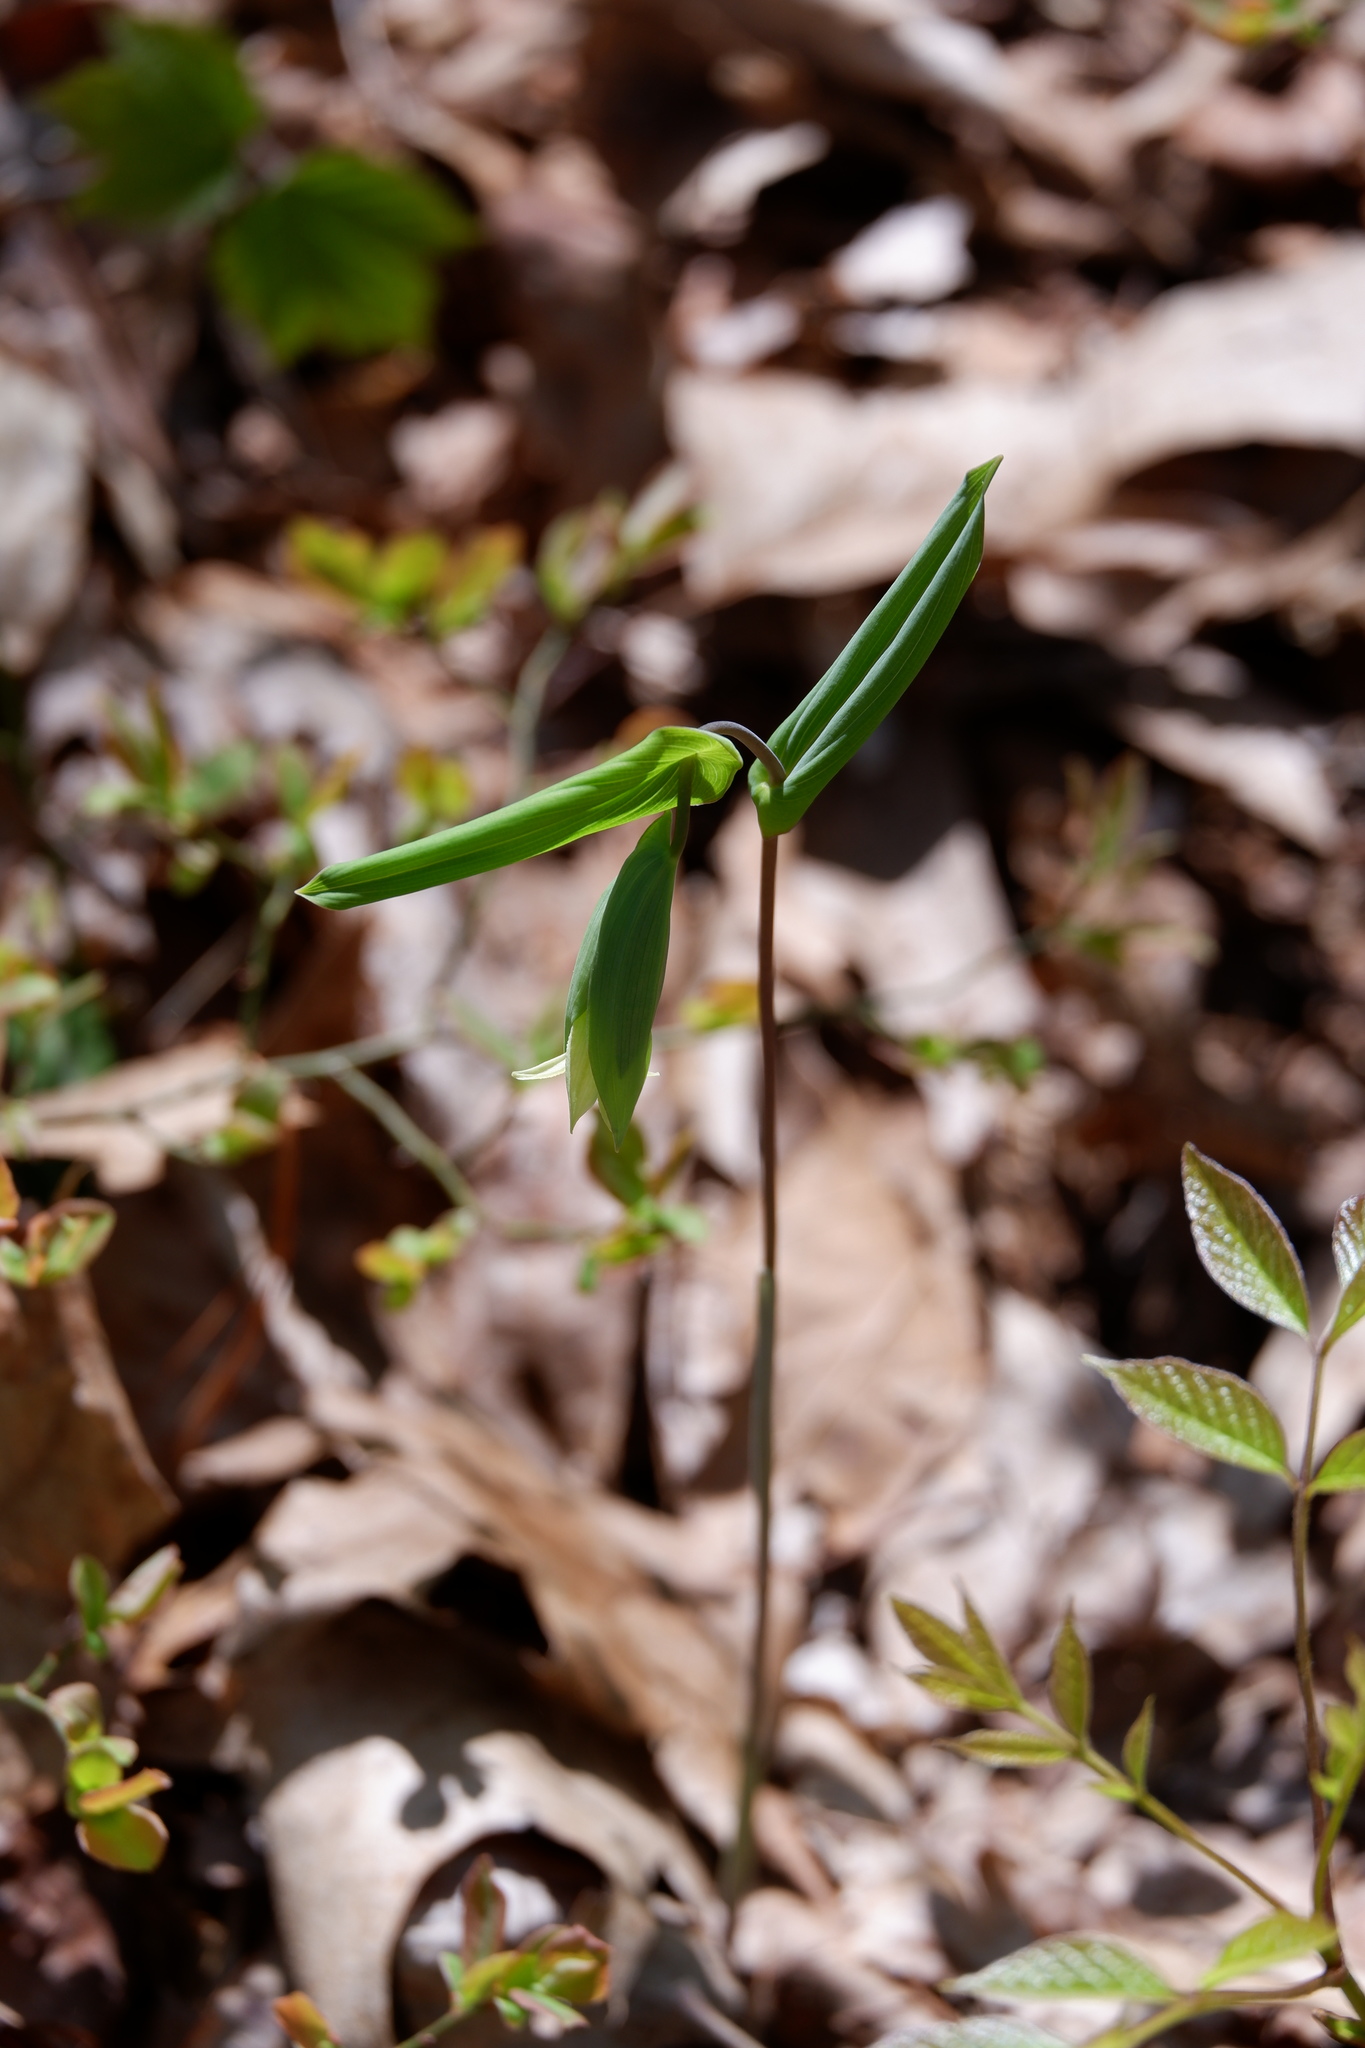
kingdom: Plantae
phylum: Tracheophyta
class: Liliopsida
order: Liliales
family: Colchicaceae
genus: Uvularia
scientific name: Uvularia perfoliata
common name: Perfoliate bellwort
